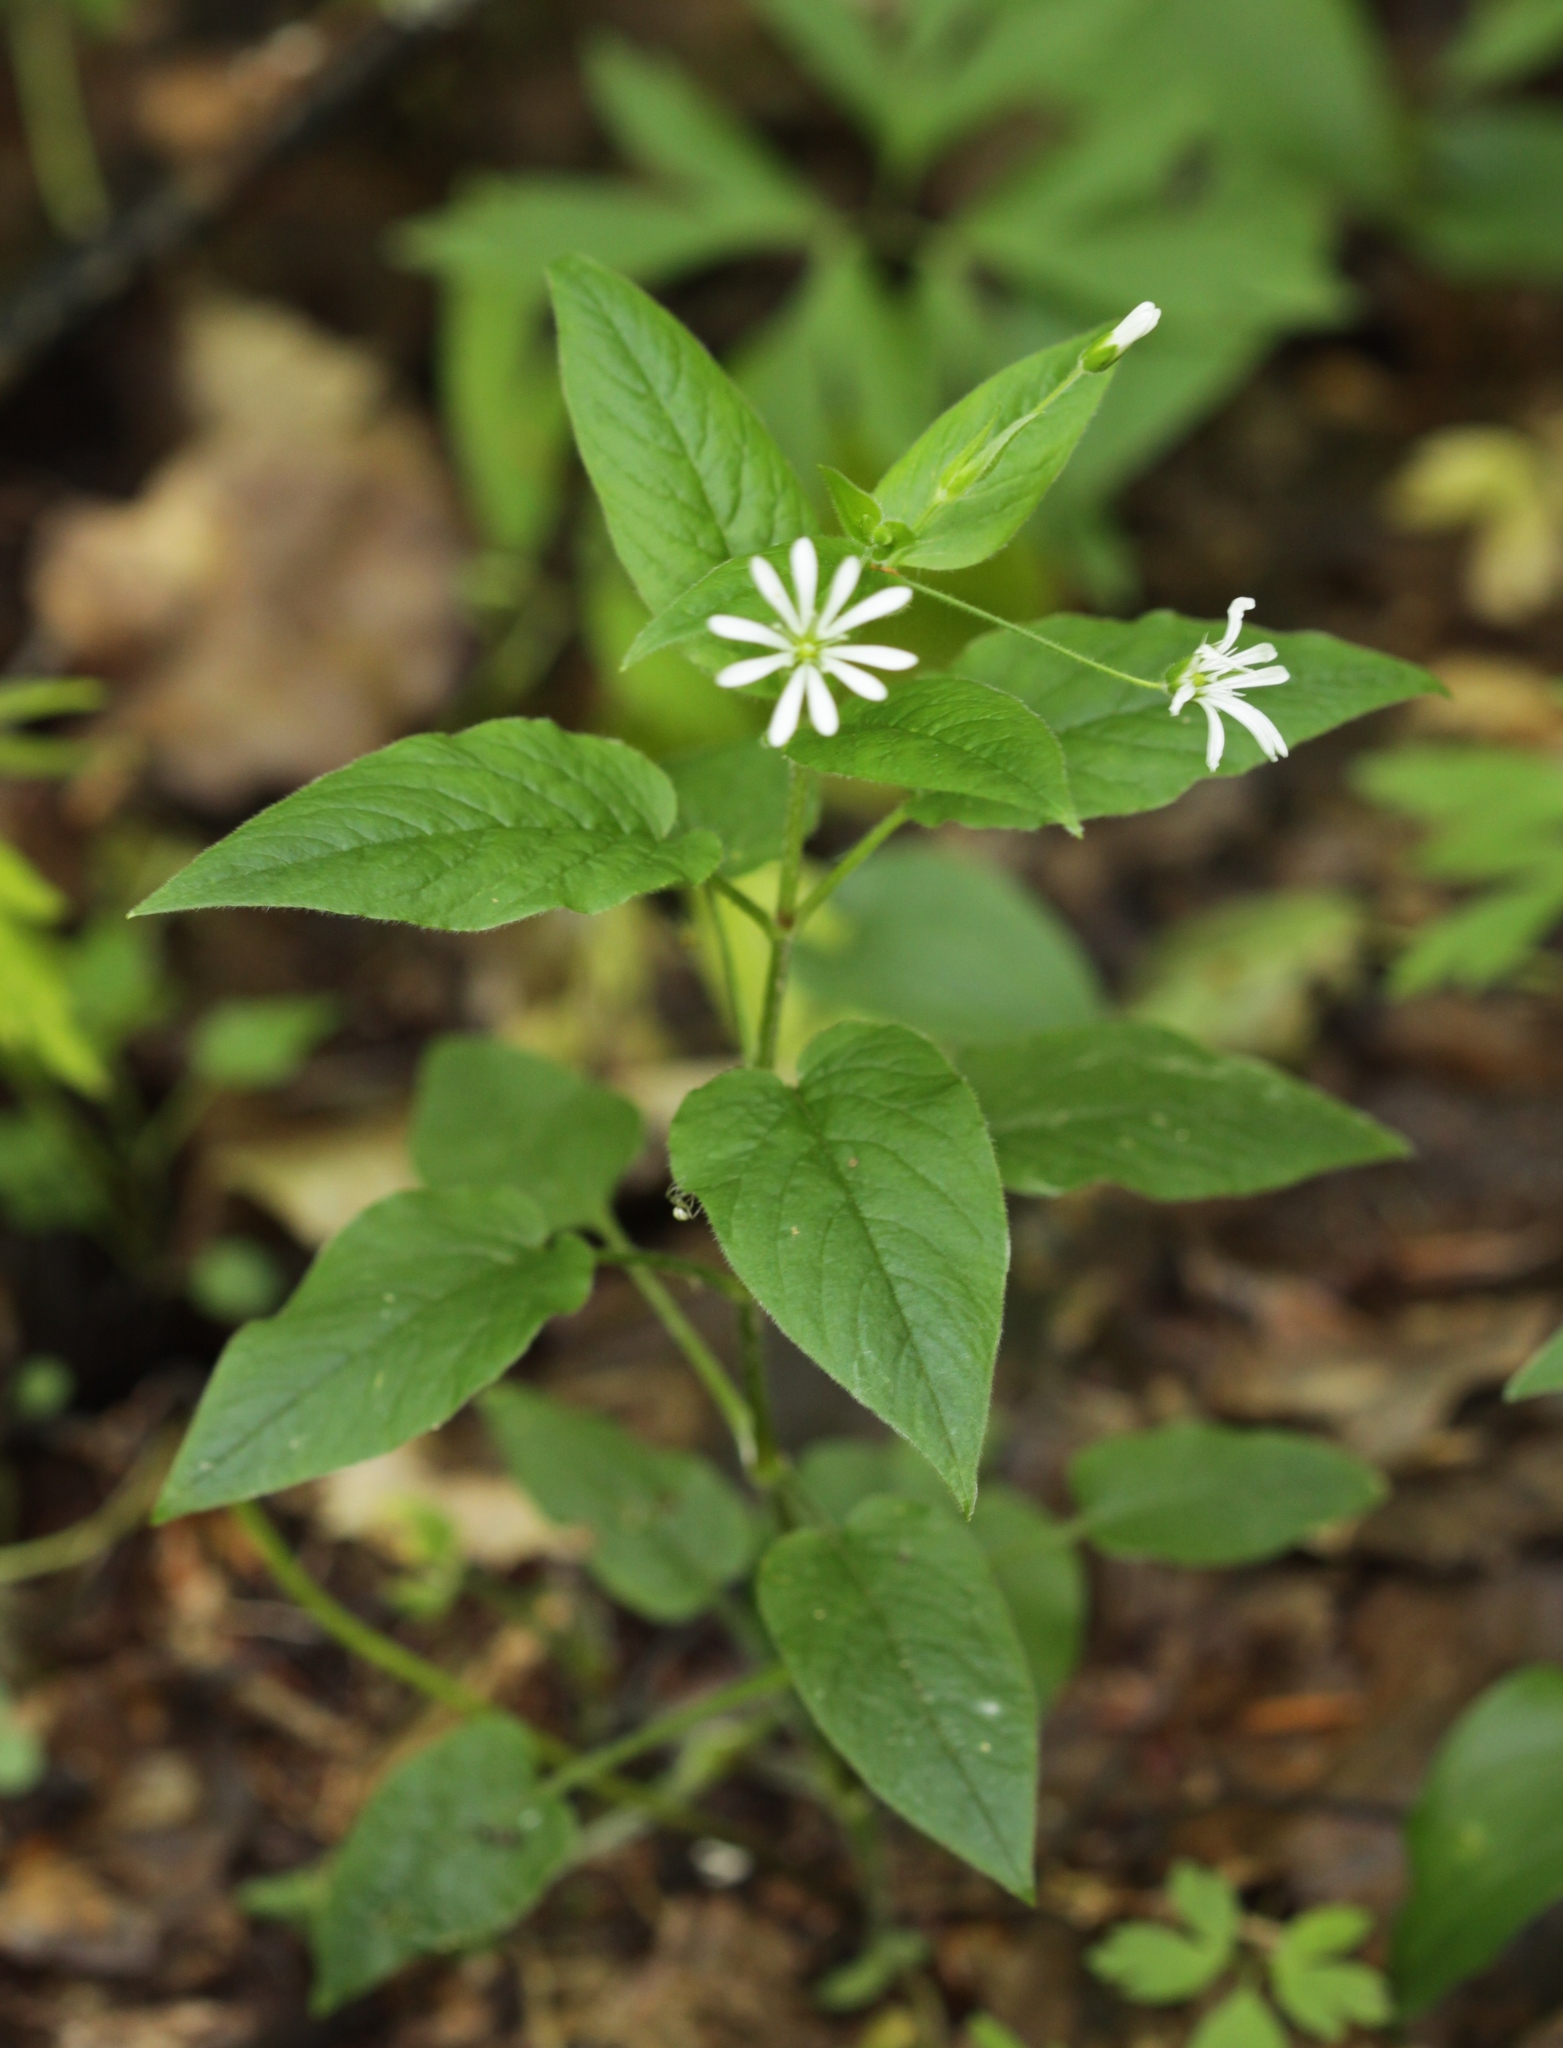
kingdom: Plantae
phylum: Tracheophyta
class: Magnoliopsida
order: Caryophyllales
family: Caryophyllaceae
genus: Stellaria
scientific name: Stellaria nemorum
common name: Wood stitchwort
